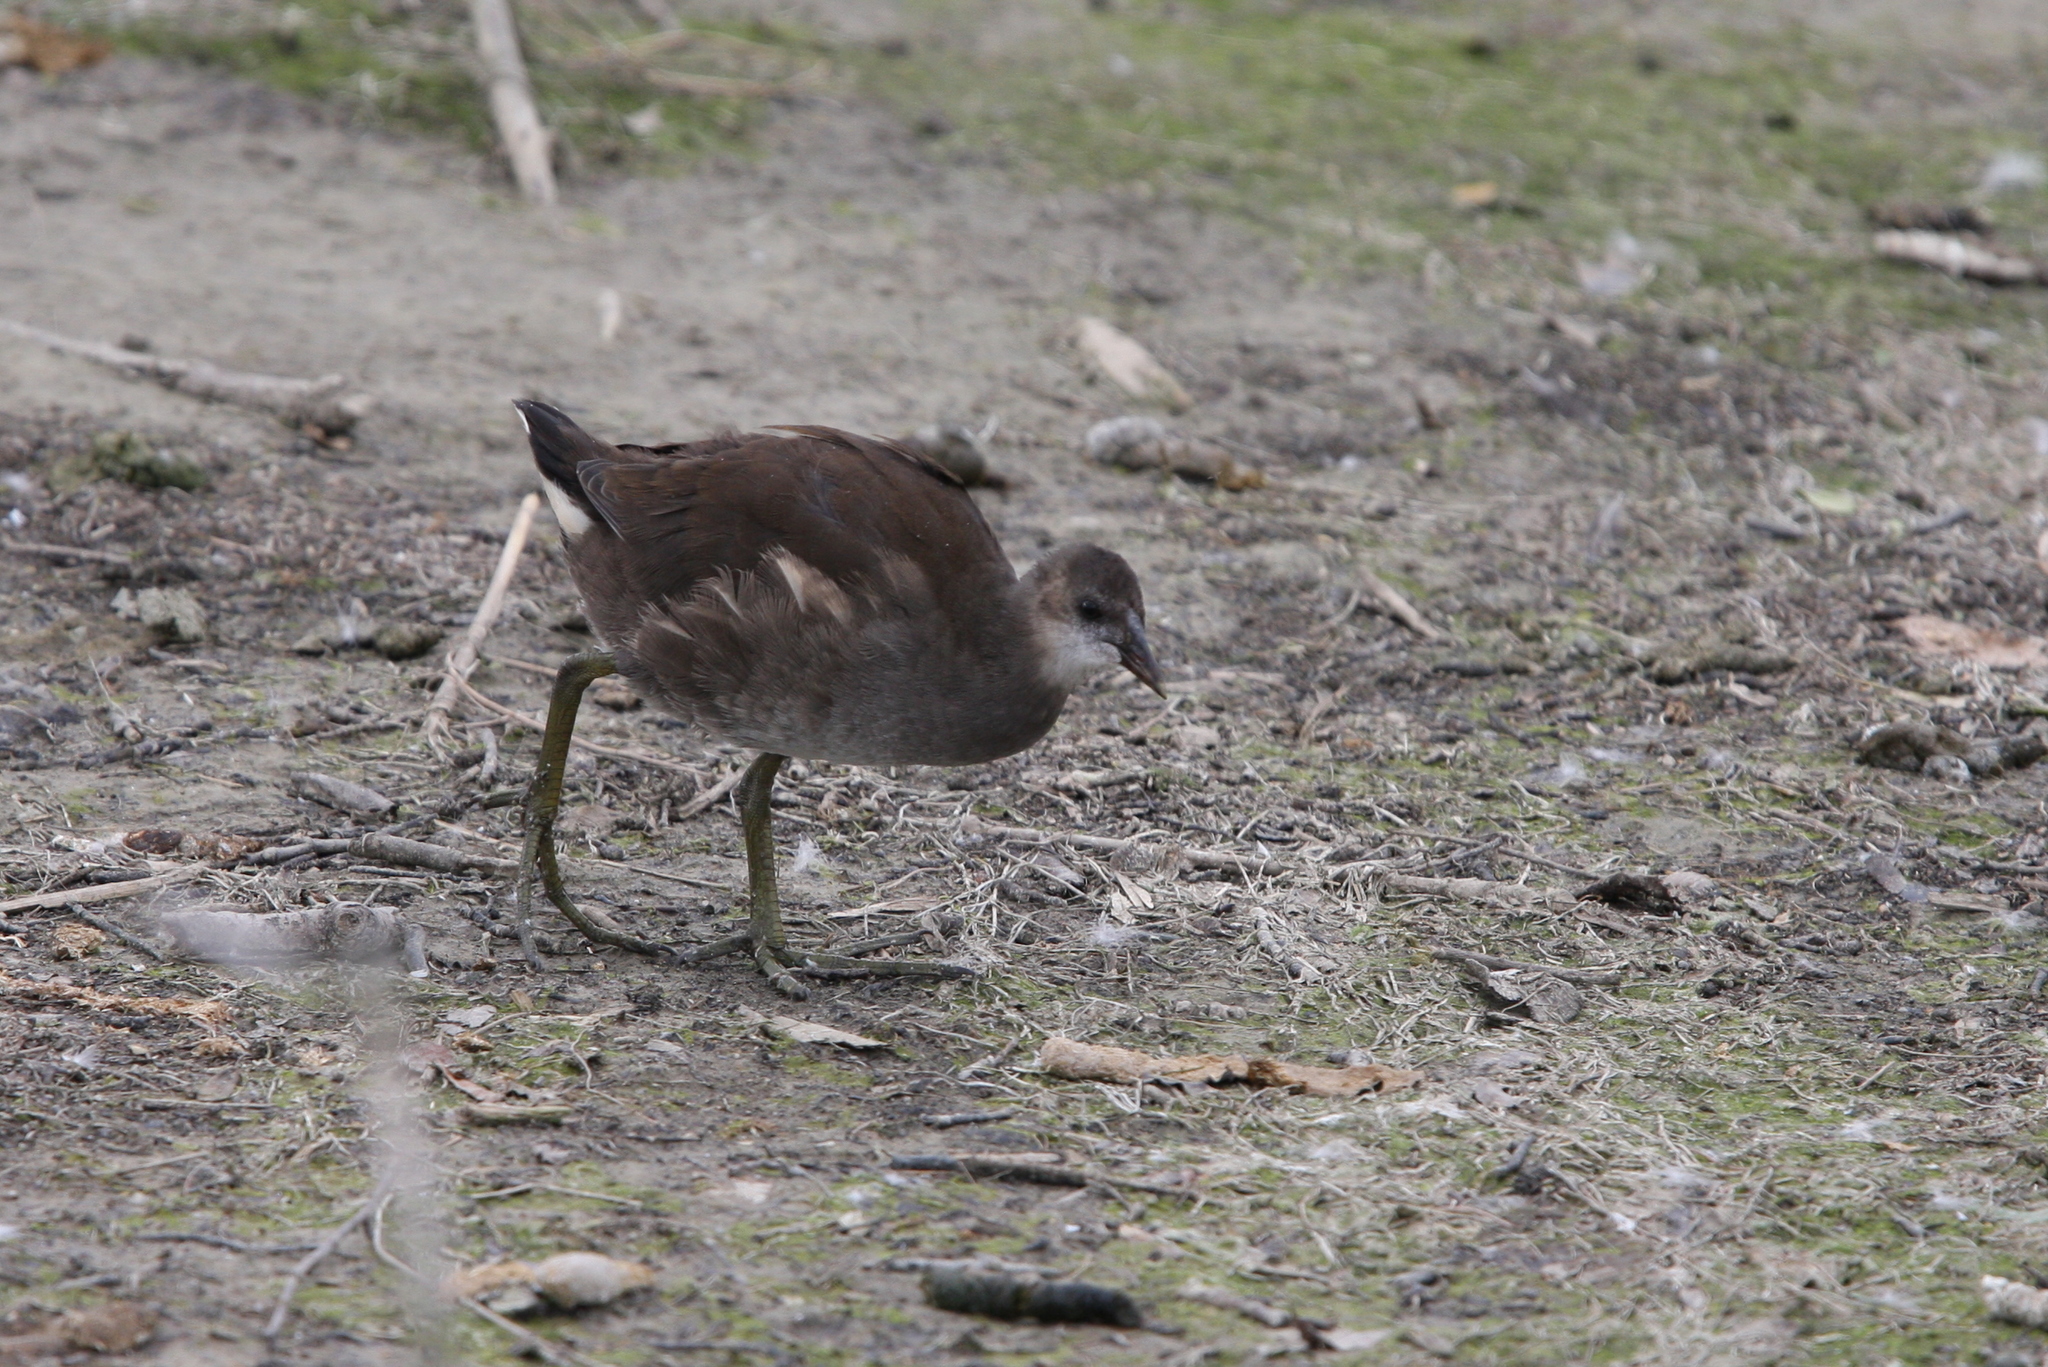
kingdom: Animalia
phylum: Chordata
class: Aves
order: Gruiformes
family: Rallidae
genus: Gallinula
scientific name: Gallinula chloropus
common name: Common moorhen
